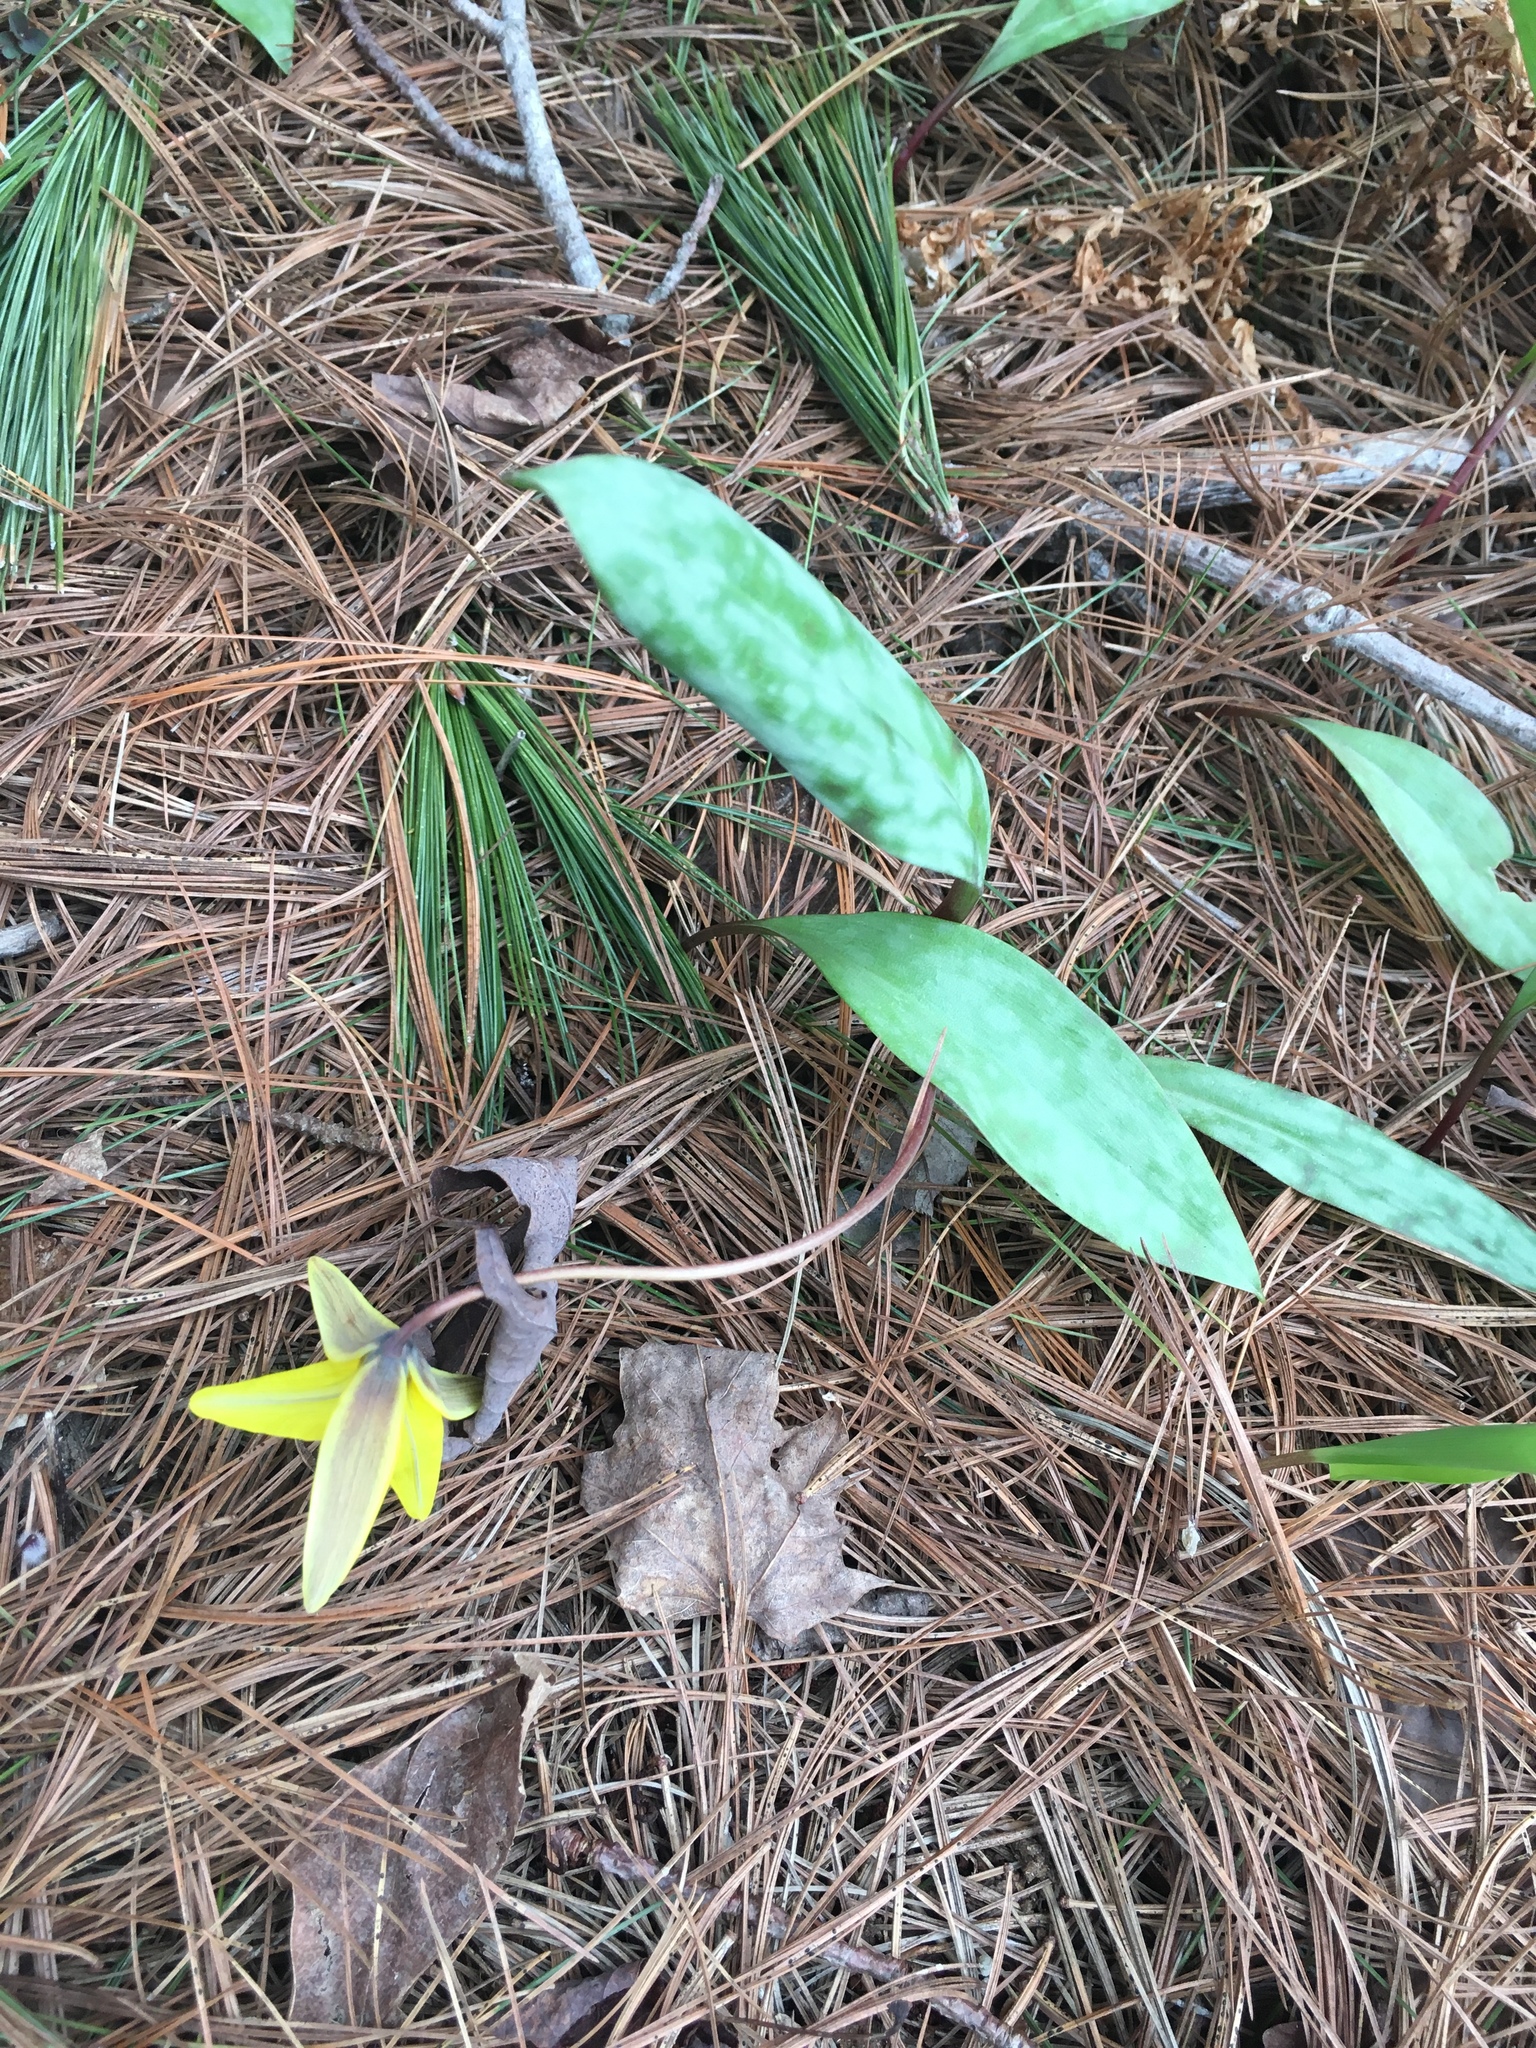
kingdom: Plantae
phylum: Tracheophyta
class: Liliopsida
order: Liliales
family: Liliaceae
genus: Erythronium
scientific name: Erythronium americanum
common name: Yellow adder's-tongue
